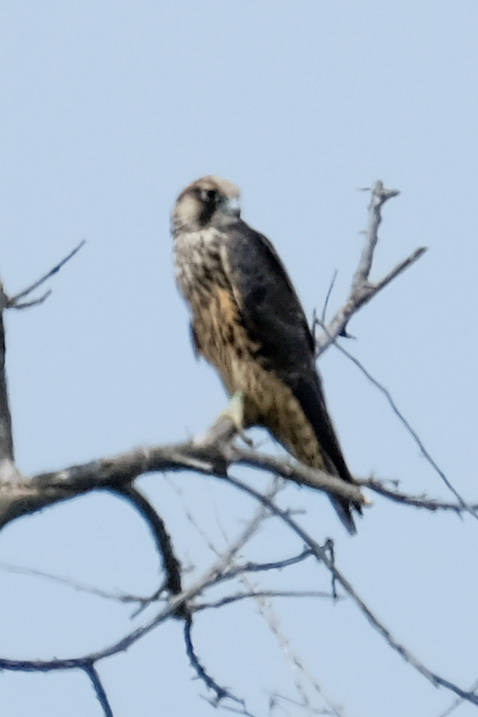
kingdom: Animalia
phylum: Chordata
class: Aves
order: Falconiformes
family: Falconidae
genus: Falco
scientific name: Falco peregrinus
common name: Peregrine falcon
